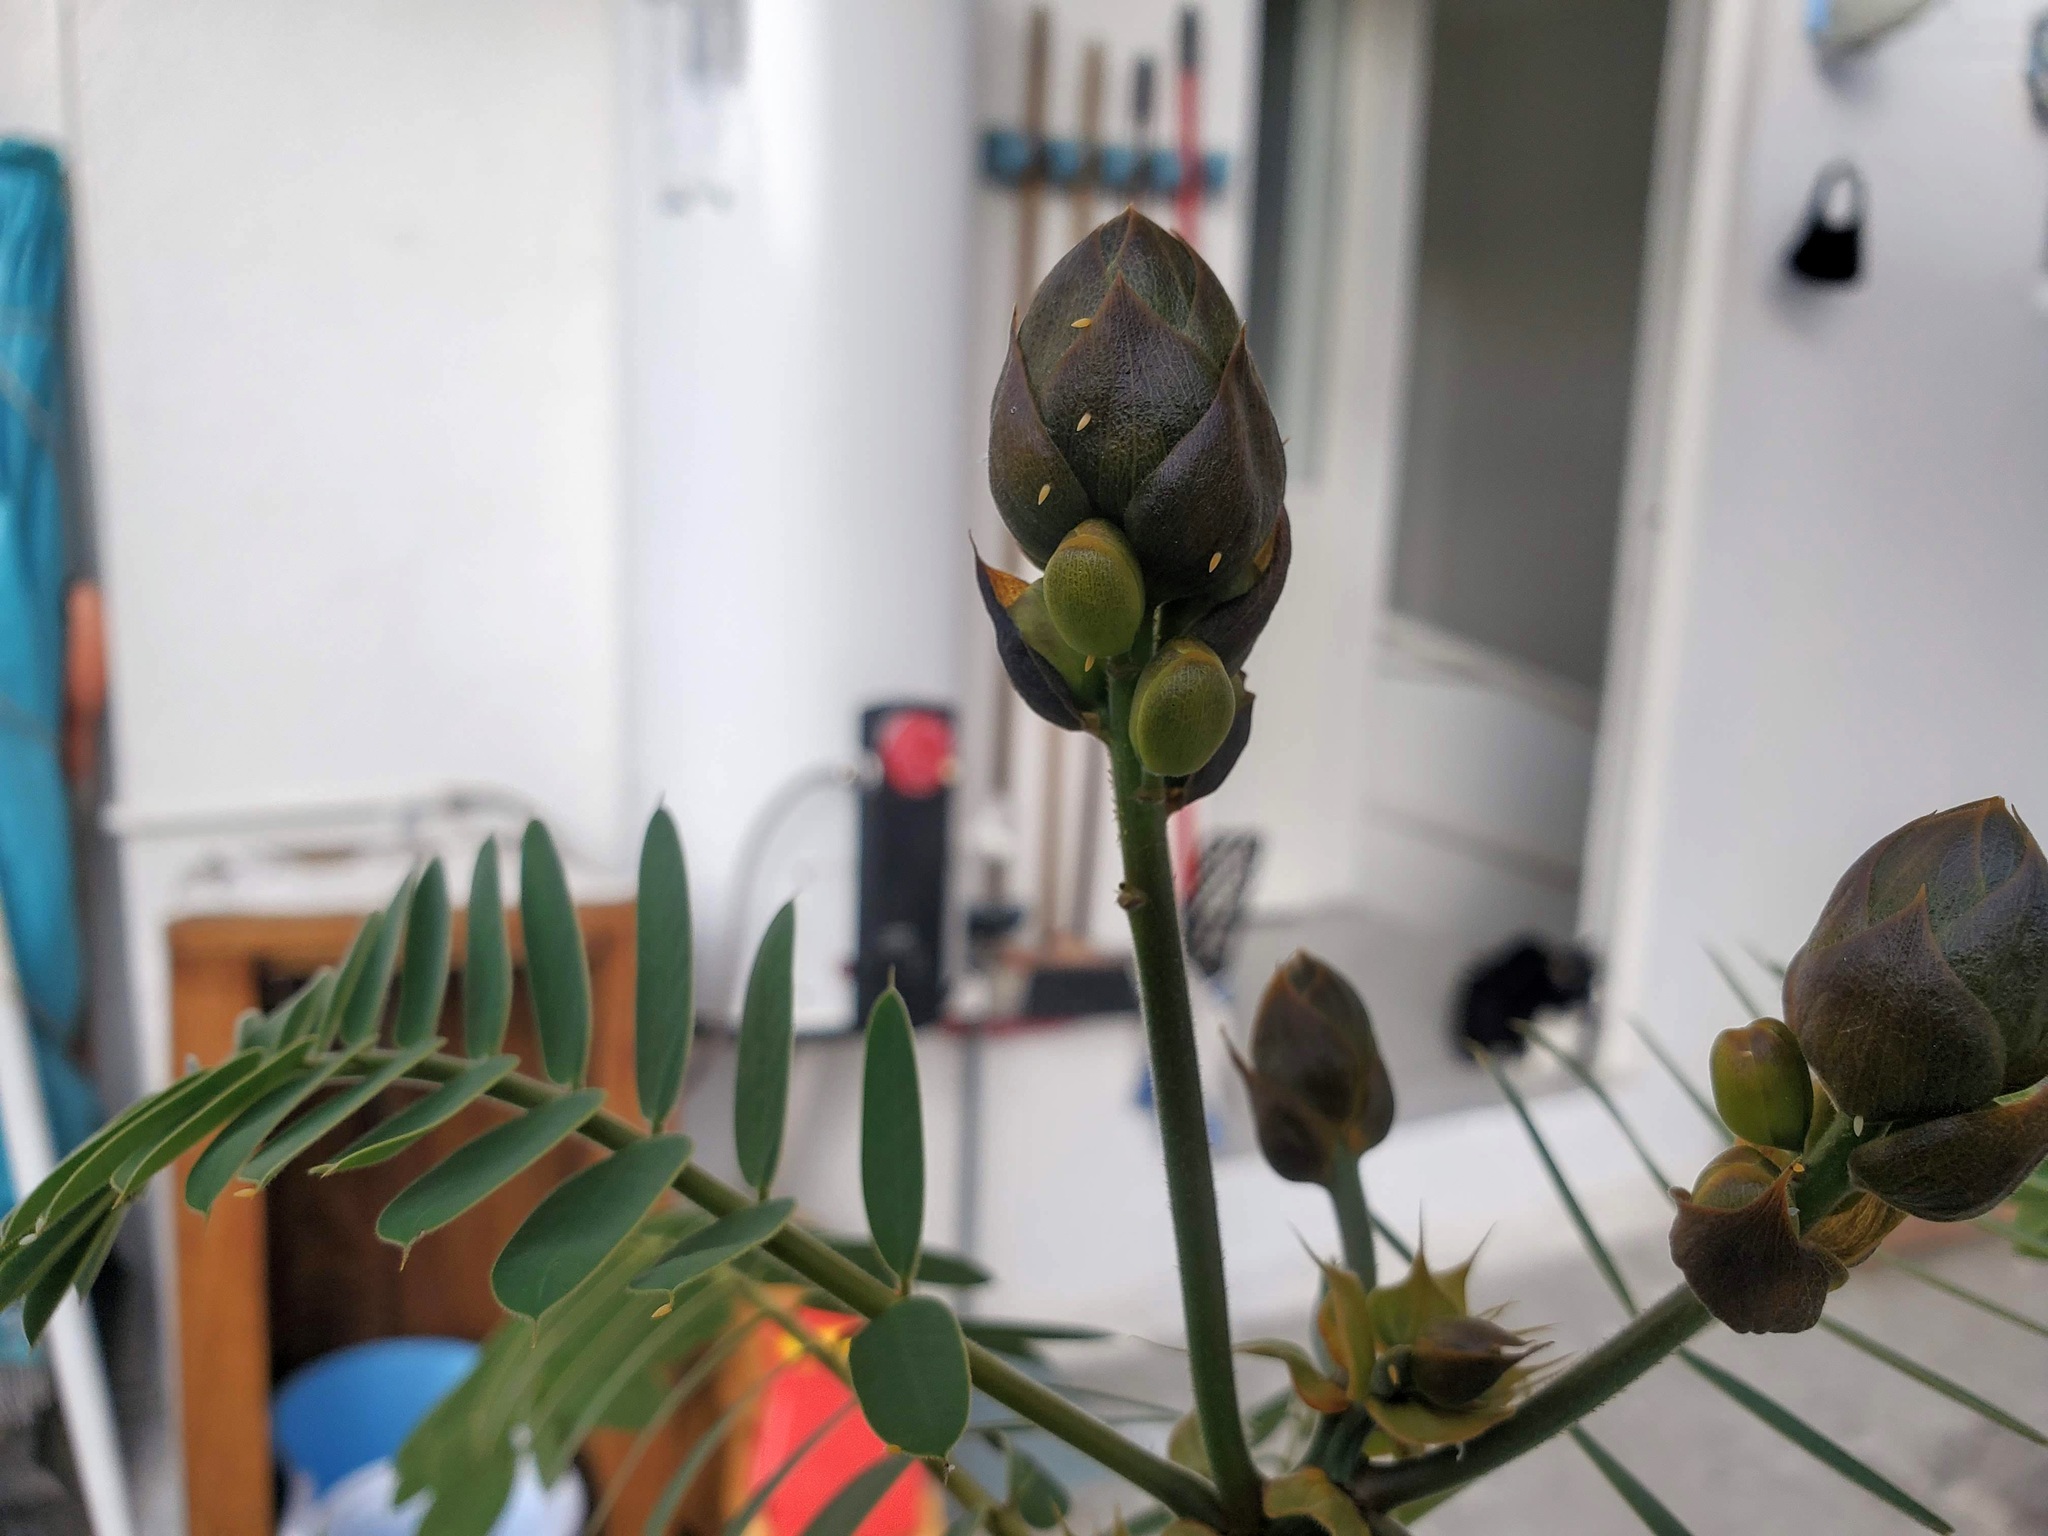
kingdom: Animalia
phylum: Arthropoda
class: Insecta
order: Lepidoptera
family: Pieridae
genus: Phoebis
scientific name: Phoebis philea
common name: Orange-barred giant sulphur
